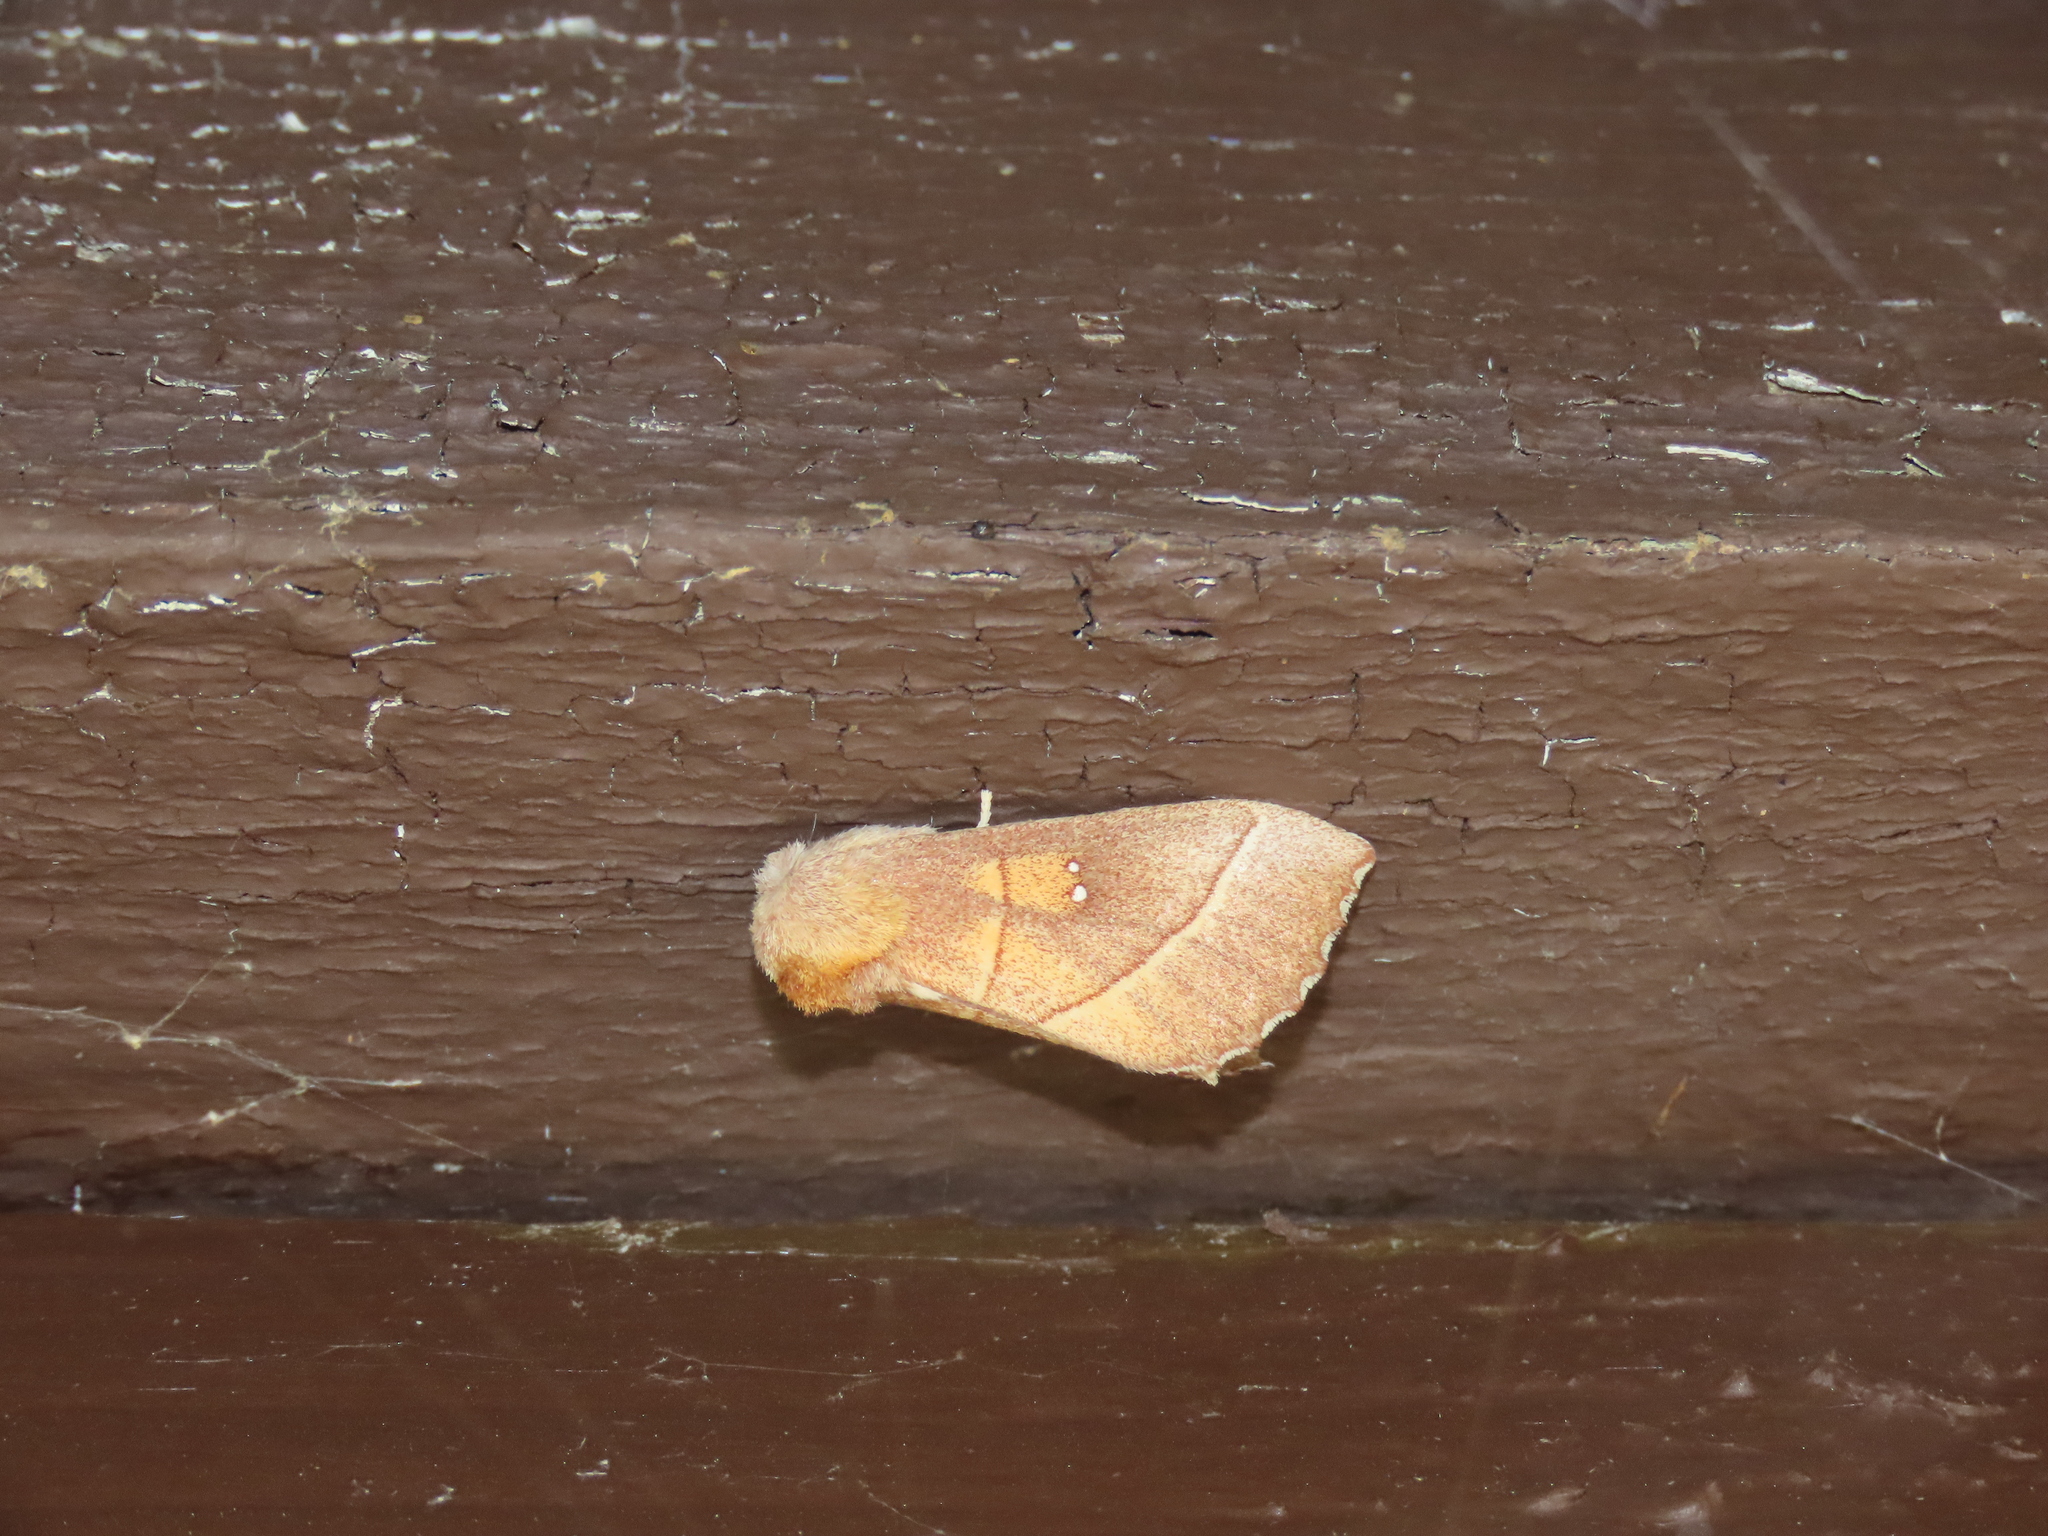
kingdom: Animalia
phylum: Arthropoda
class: Insecta
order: Lepidoptera
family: Notodontidae
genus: Nadata
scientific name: Nadata gibbosa
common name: White-dotted prominent
